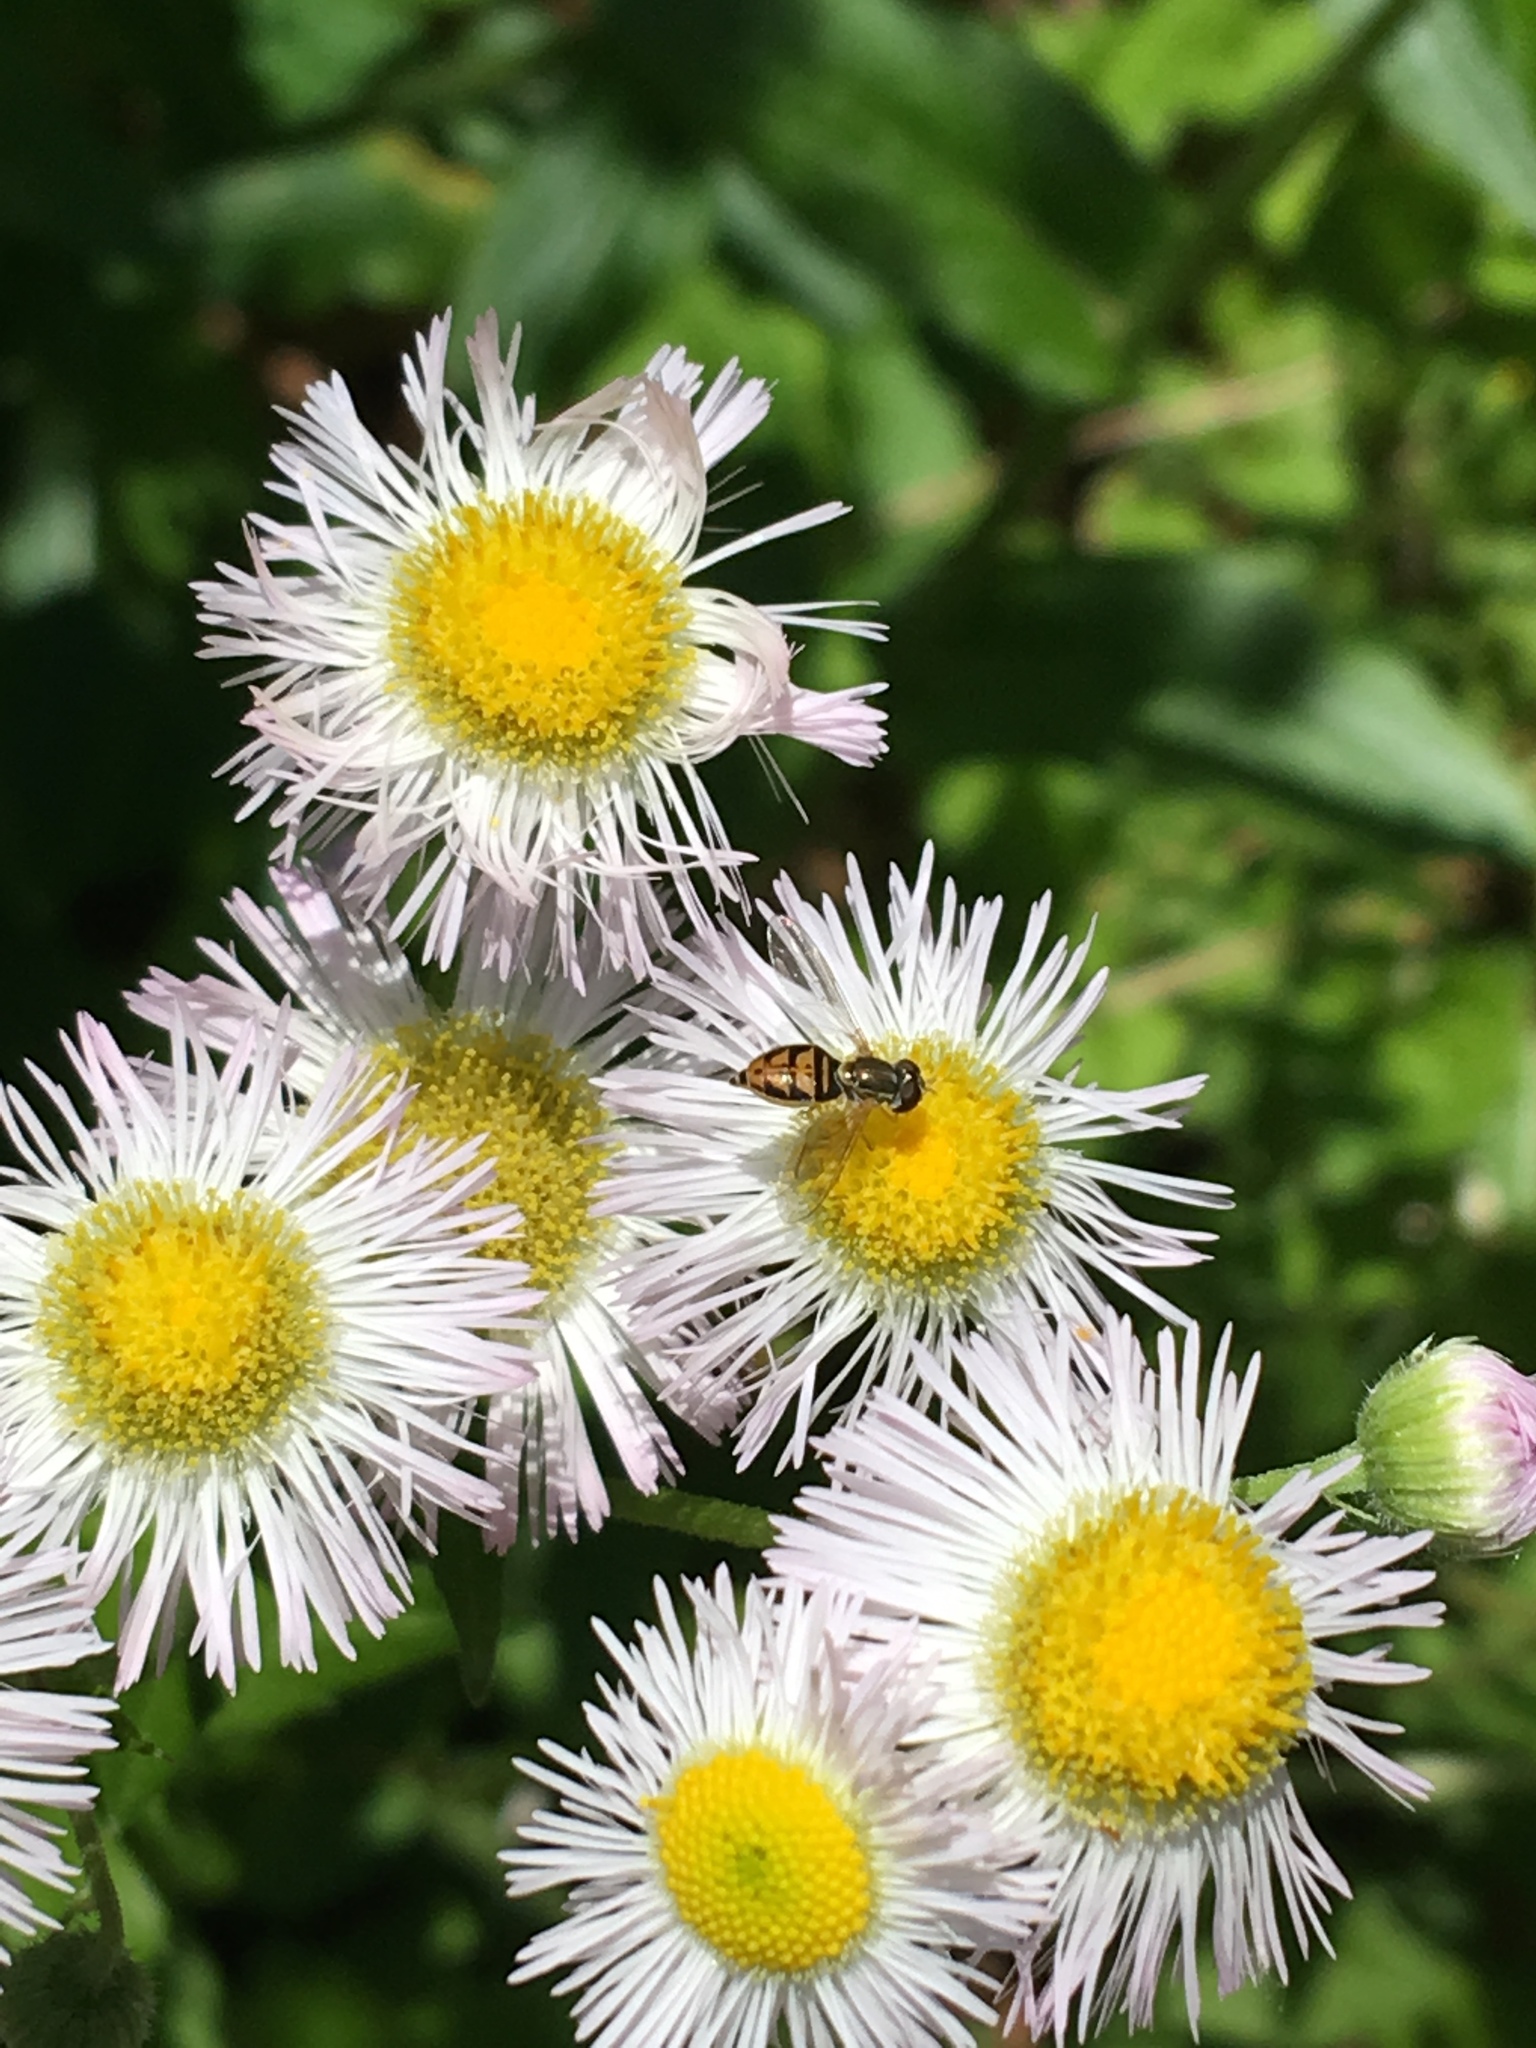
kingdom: Animalia
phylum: Arthropoda
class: Insecta
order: Diptera
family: Syrphidae
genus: Toxomerus
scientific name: Toxomerus marginatus
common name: Syrphid fly
